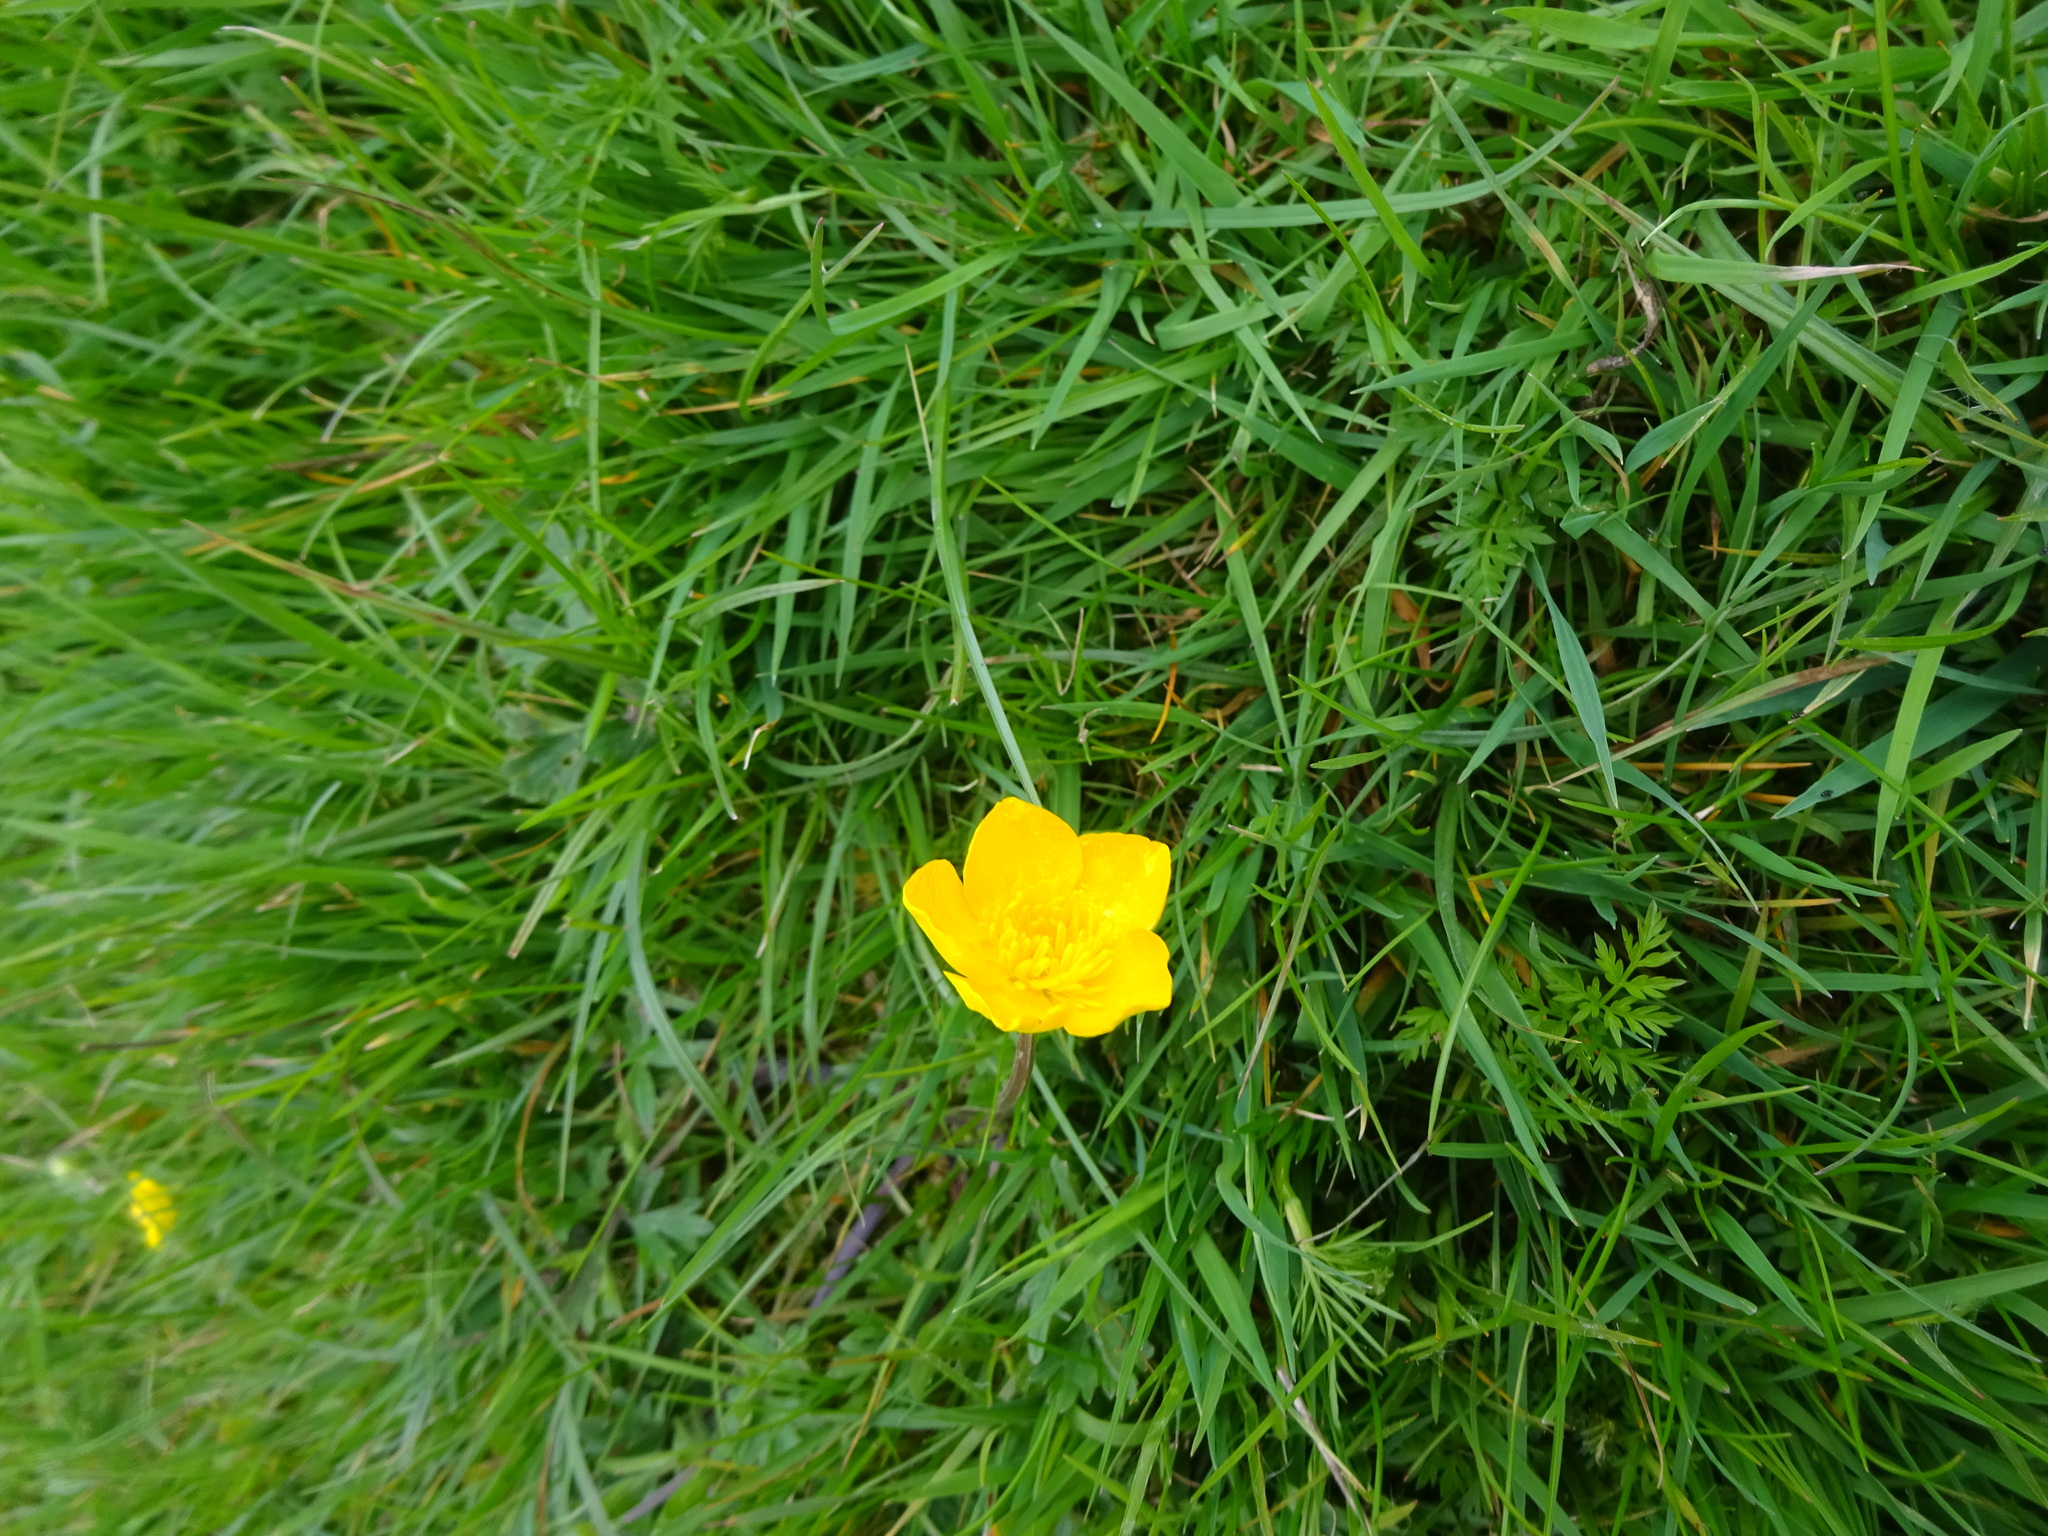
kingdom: Plantae
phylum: Tracheophyta
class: Magnoliopsida
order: Ranunculales
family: Ranunculaceae
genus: Ranunculus
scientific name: Ranunculus bulbosus
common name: Bulbous buttercup
